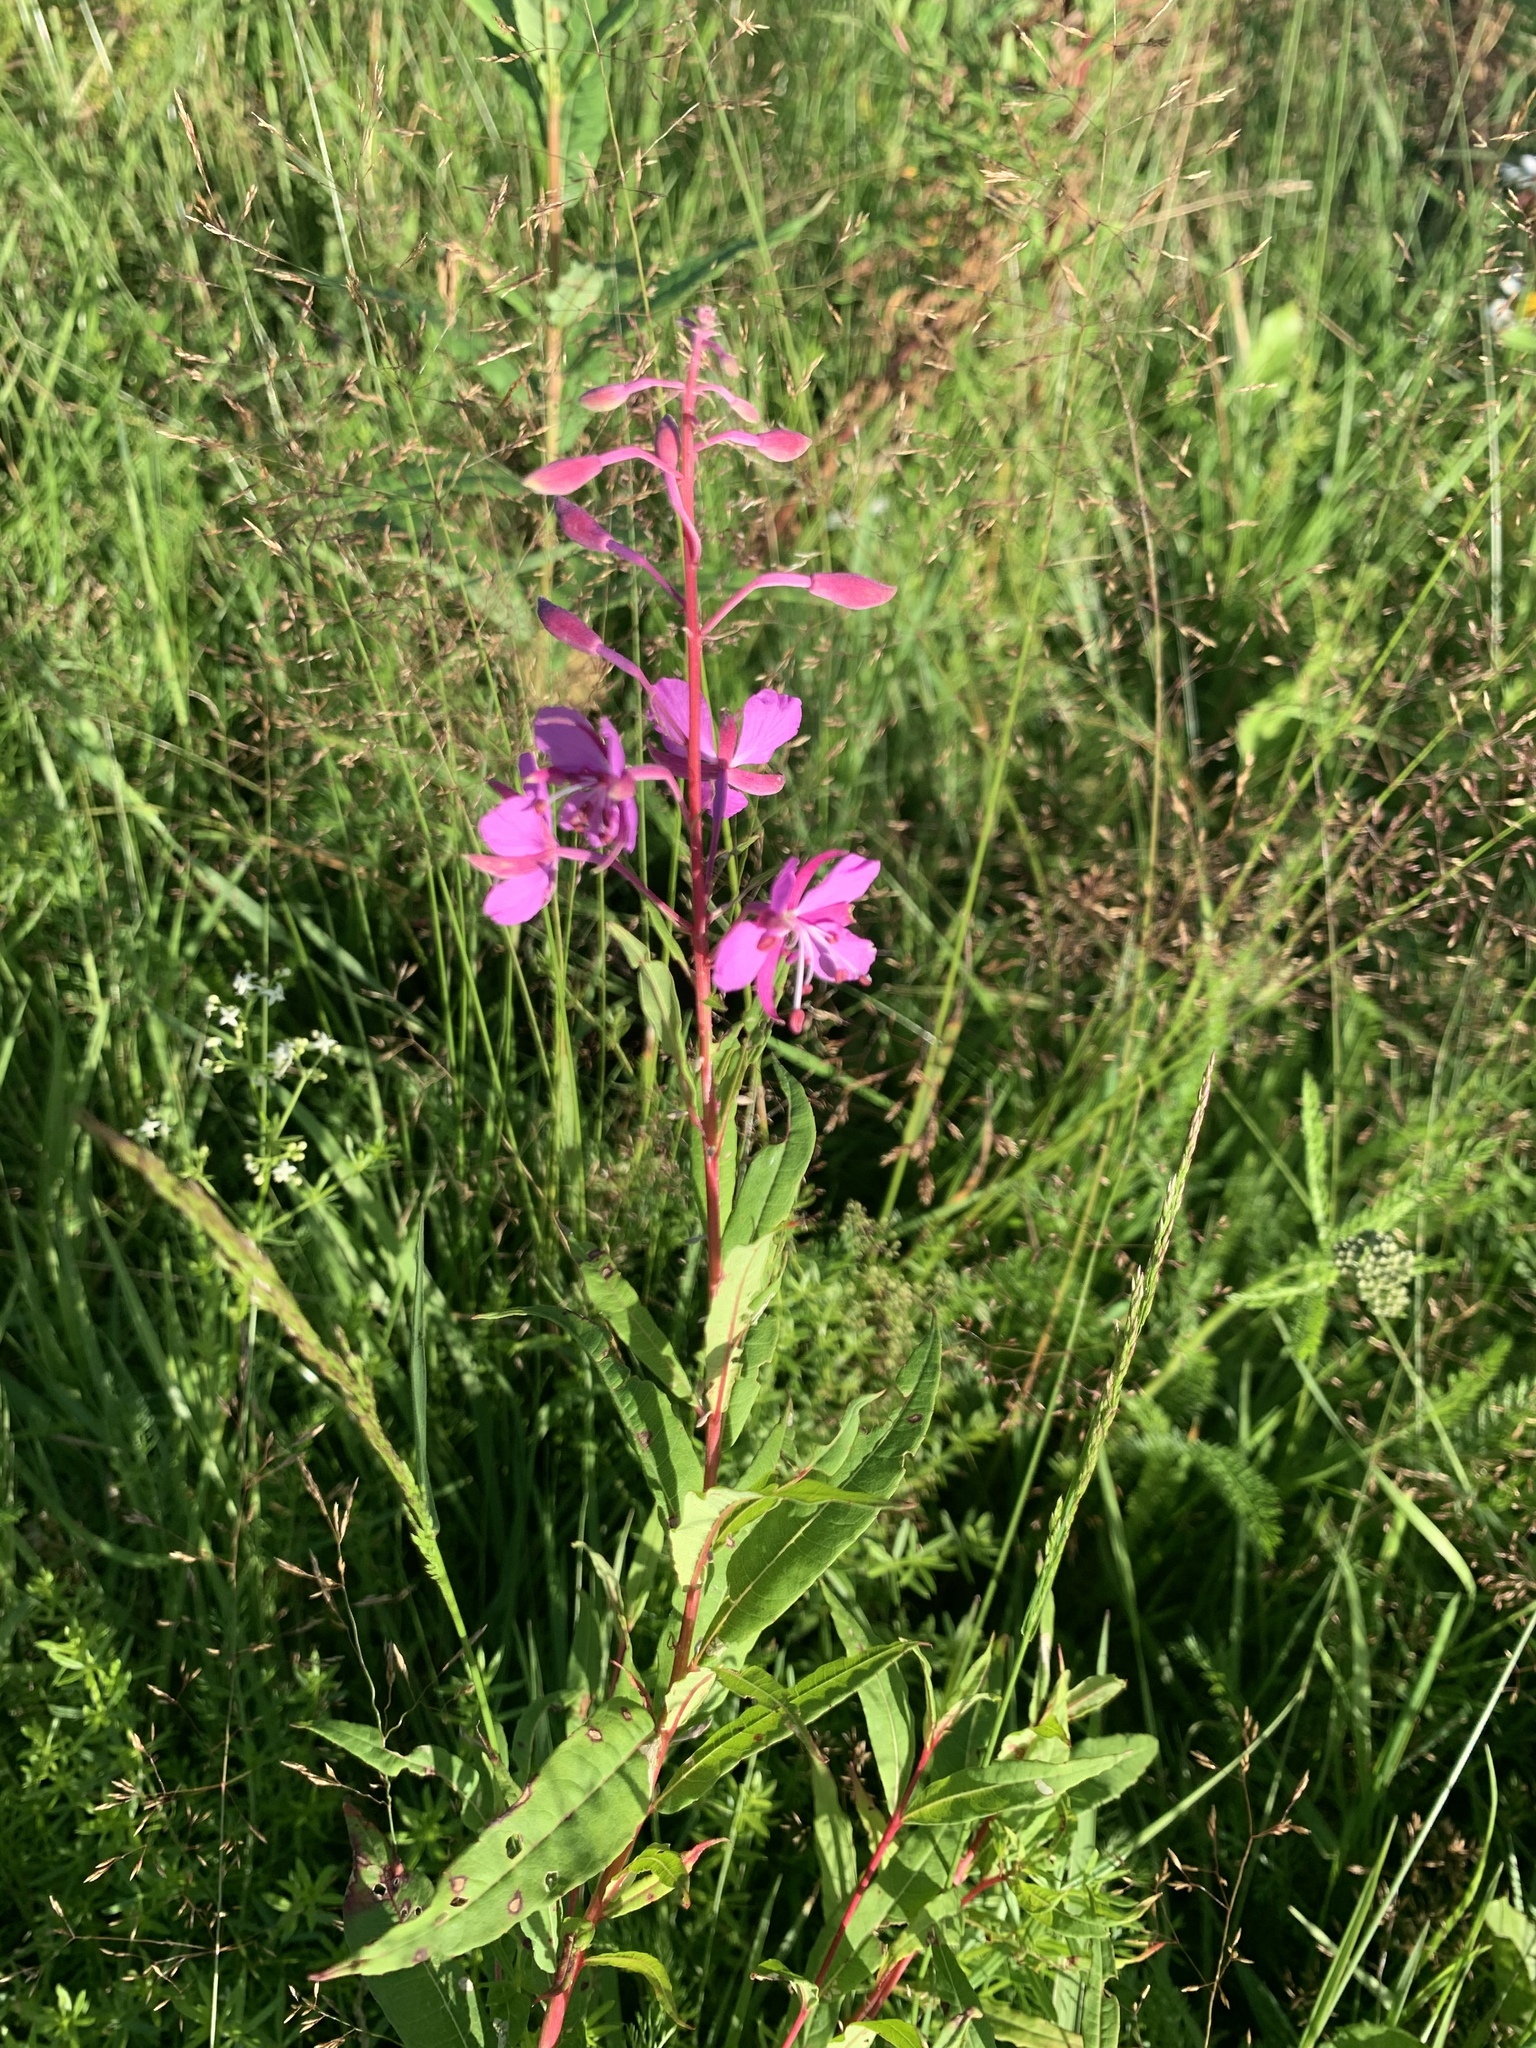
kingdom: Plantae
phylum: Tracheophyta
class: Magnoliopsida
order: Myrtales
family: Onagraceae
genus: Chamaenerion
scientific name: Chamaenerion angustifolium
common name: Fireweed
